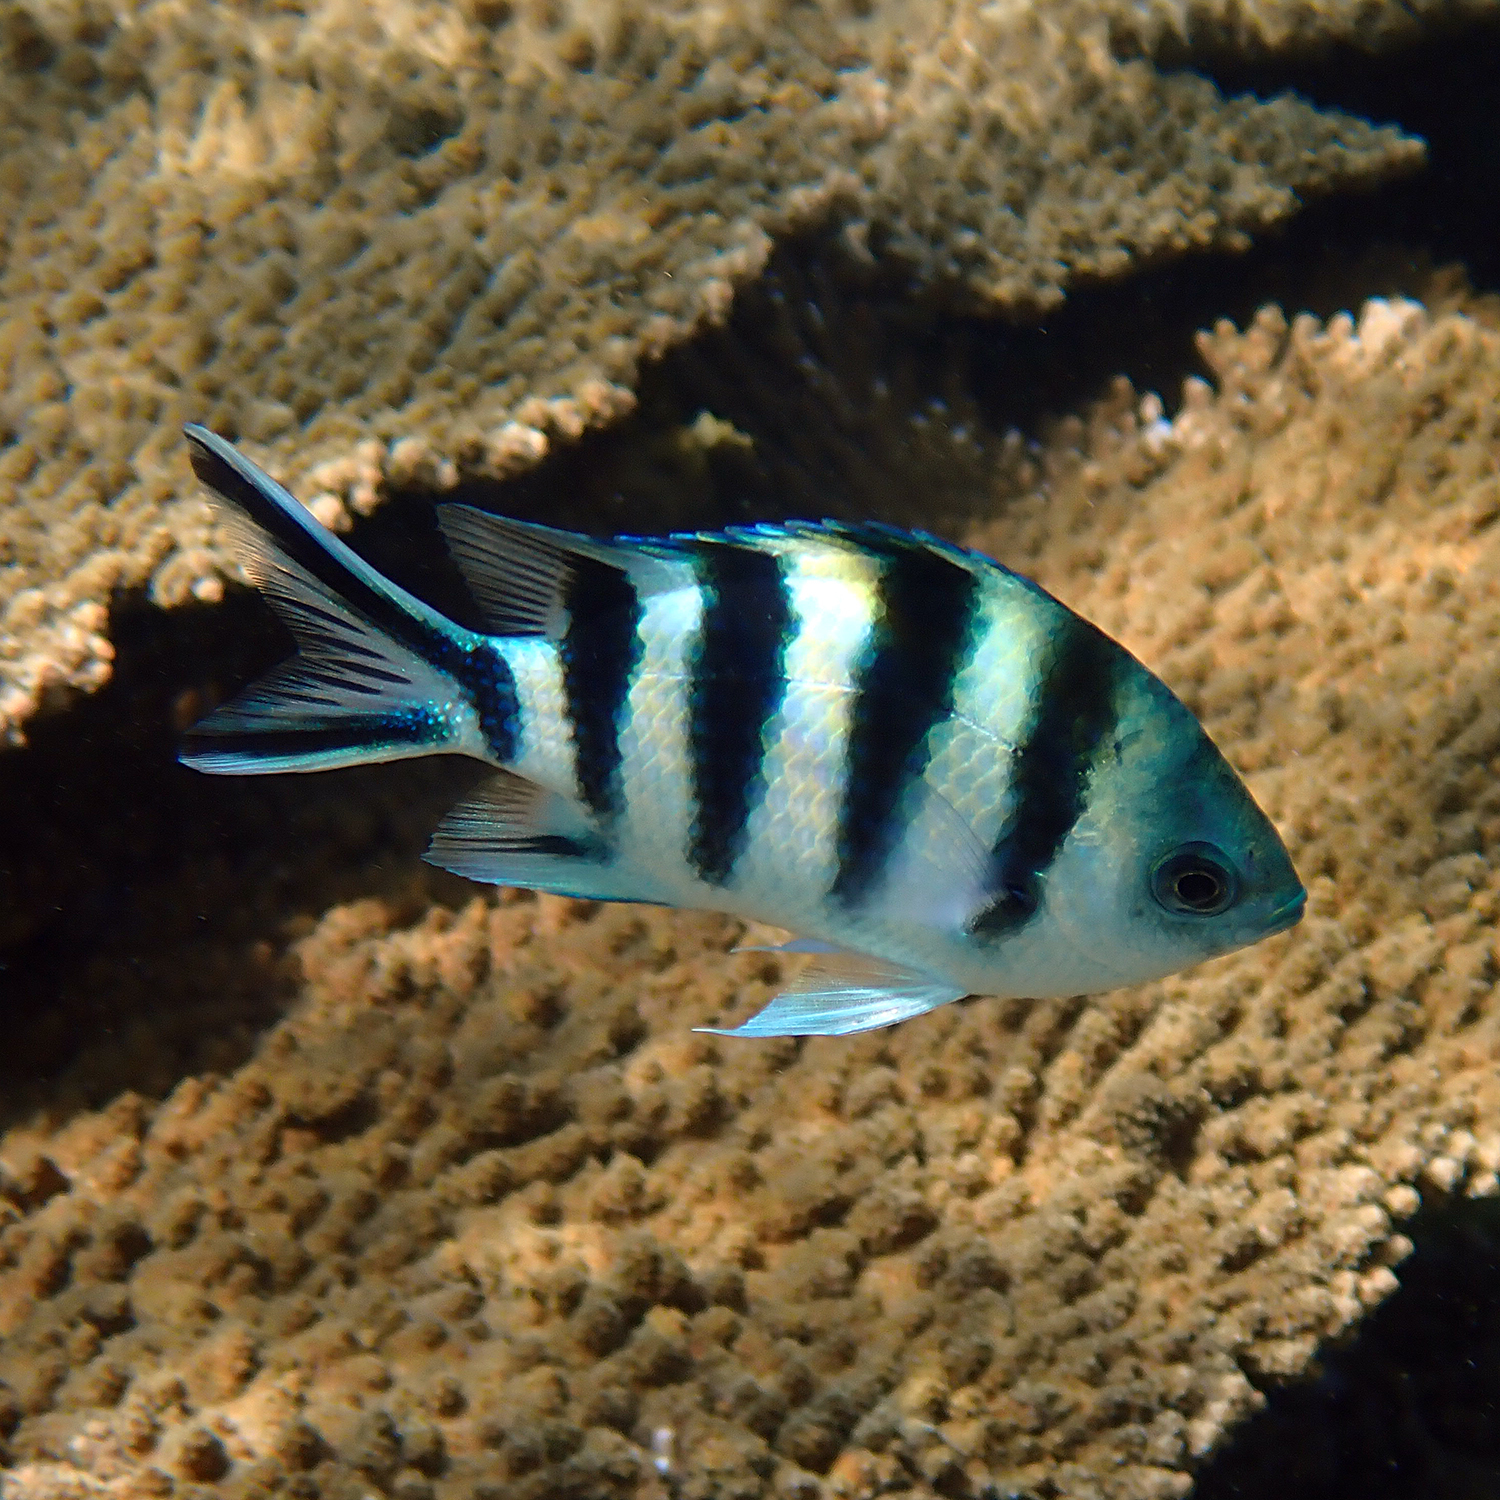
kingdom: Animalia
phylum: Chordata
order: Perciformes
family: Pomacentridae
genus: Abudefduf
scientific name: Abudefduf sexfasciatus
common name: Scissortail sergeant
